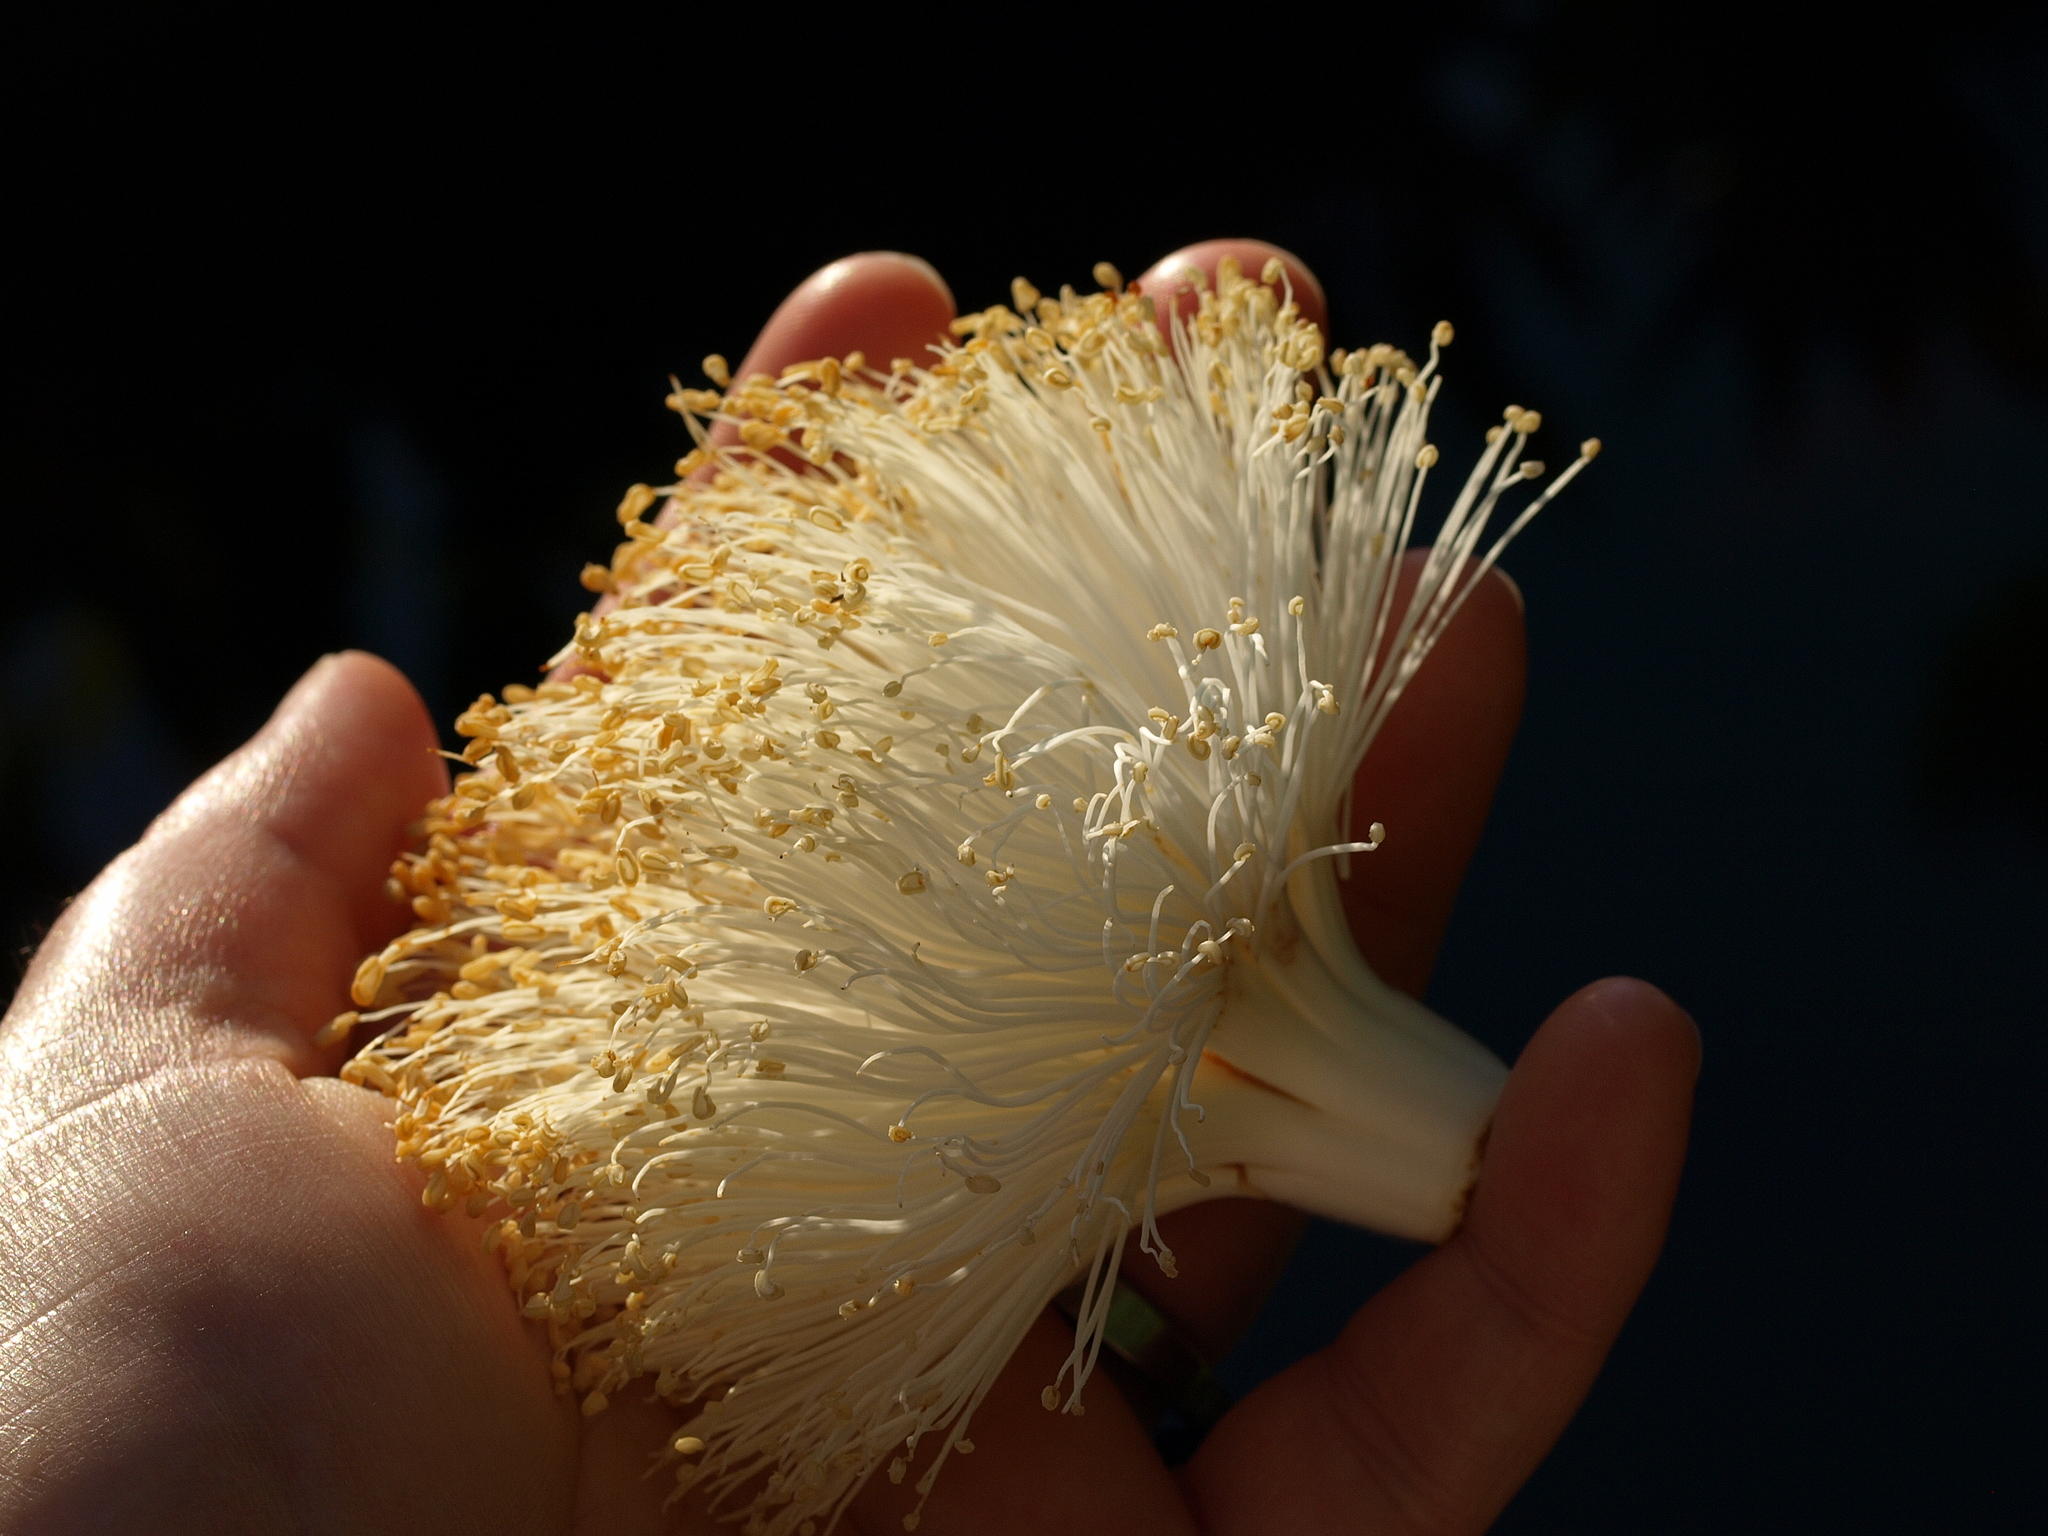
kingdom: Plantae
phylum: Tracheophyta
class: Magnoliopsida
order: Malvales
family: Malvaceae
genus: Pseudobombax
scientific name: Pseudobombax septenatum
